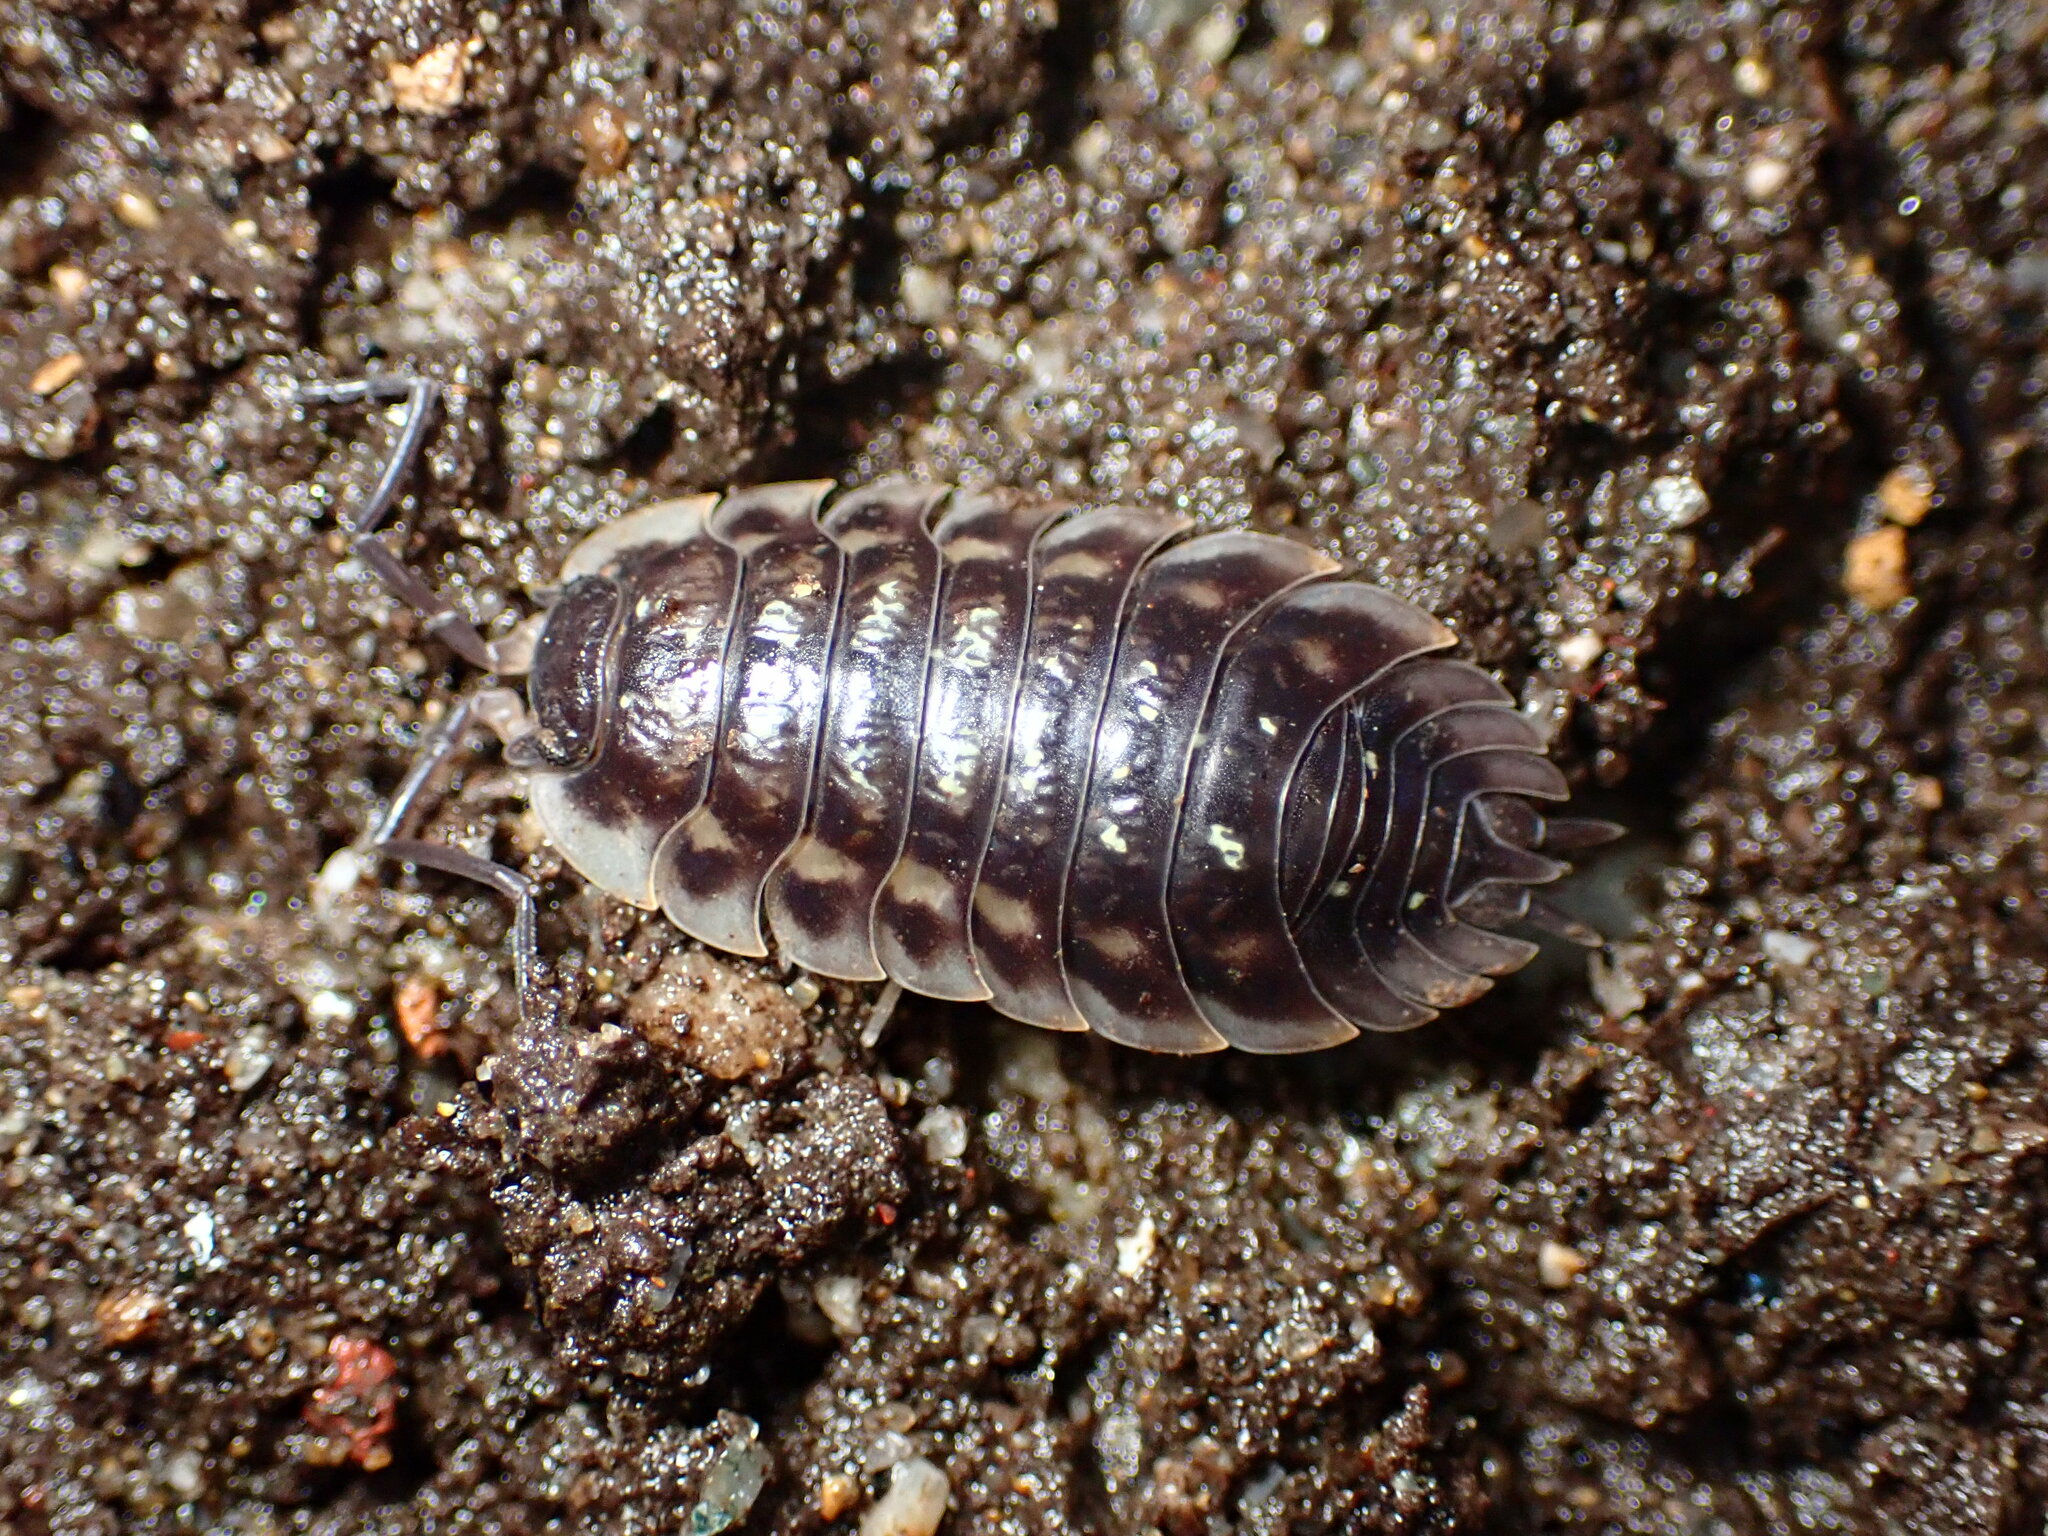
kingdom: Animalia
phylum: Arthropoda
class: Malacostraca
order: Isopoda
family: Oniscidae
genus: Oniscus
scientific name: Oniscus asellus
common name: Common shiny woodlouse
